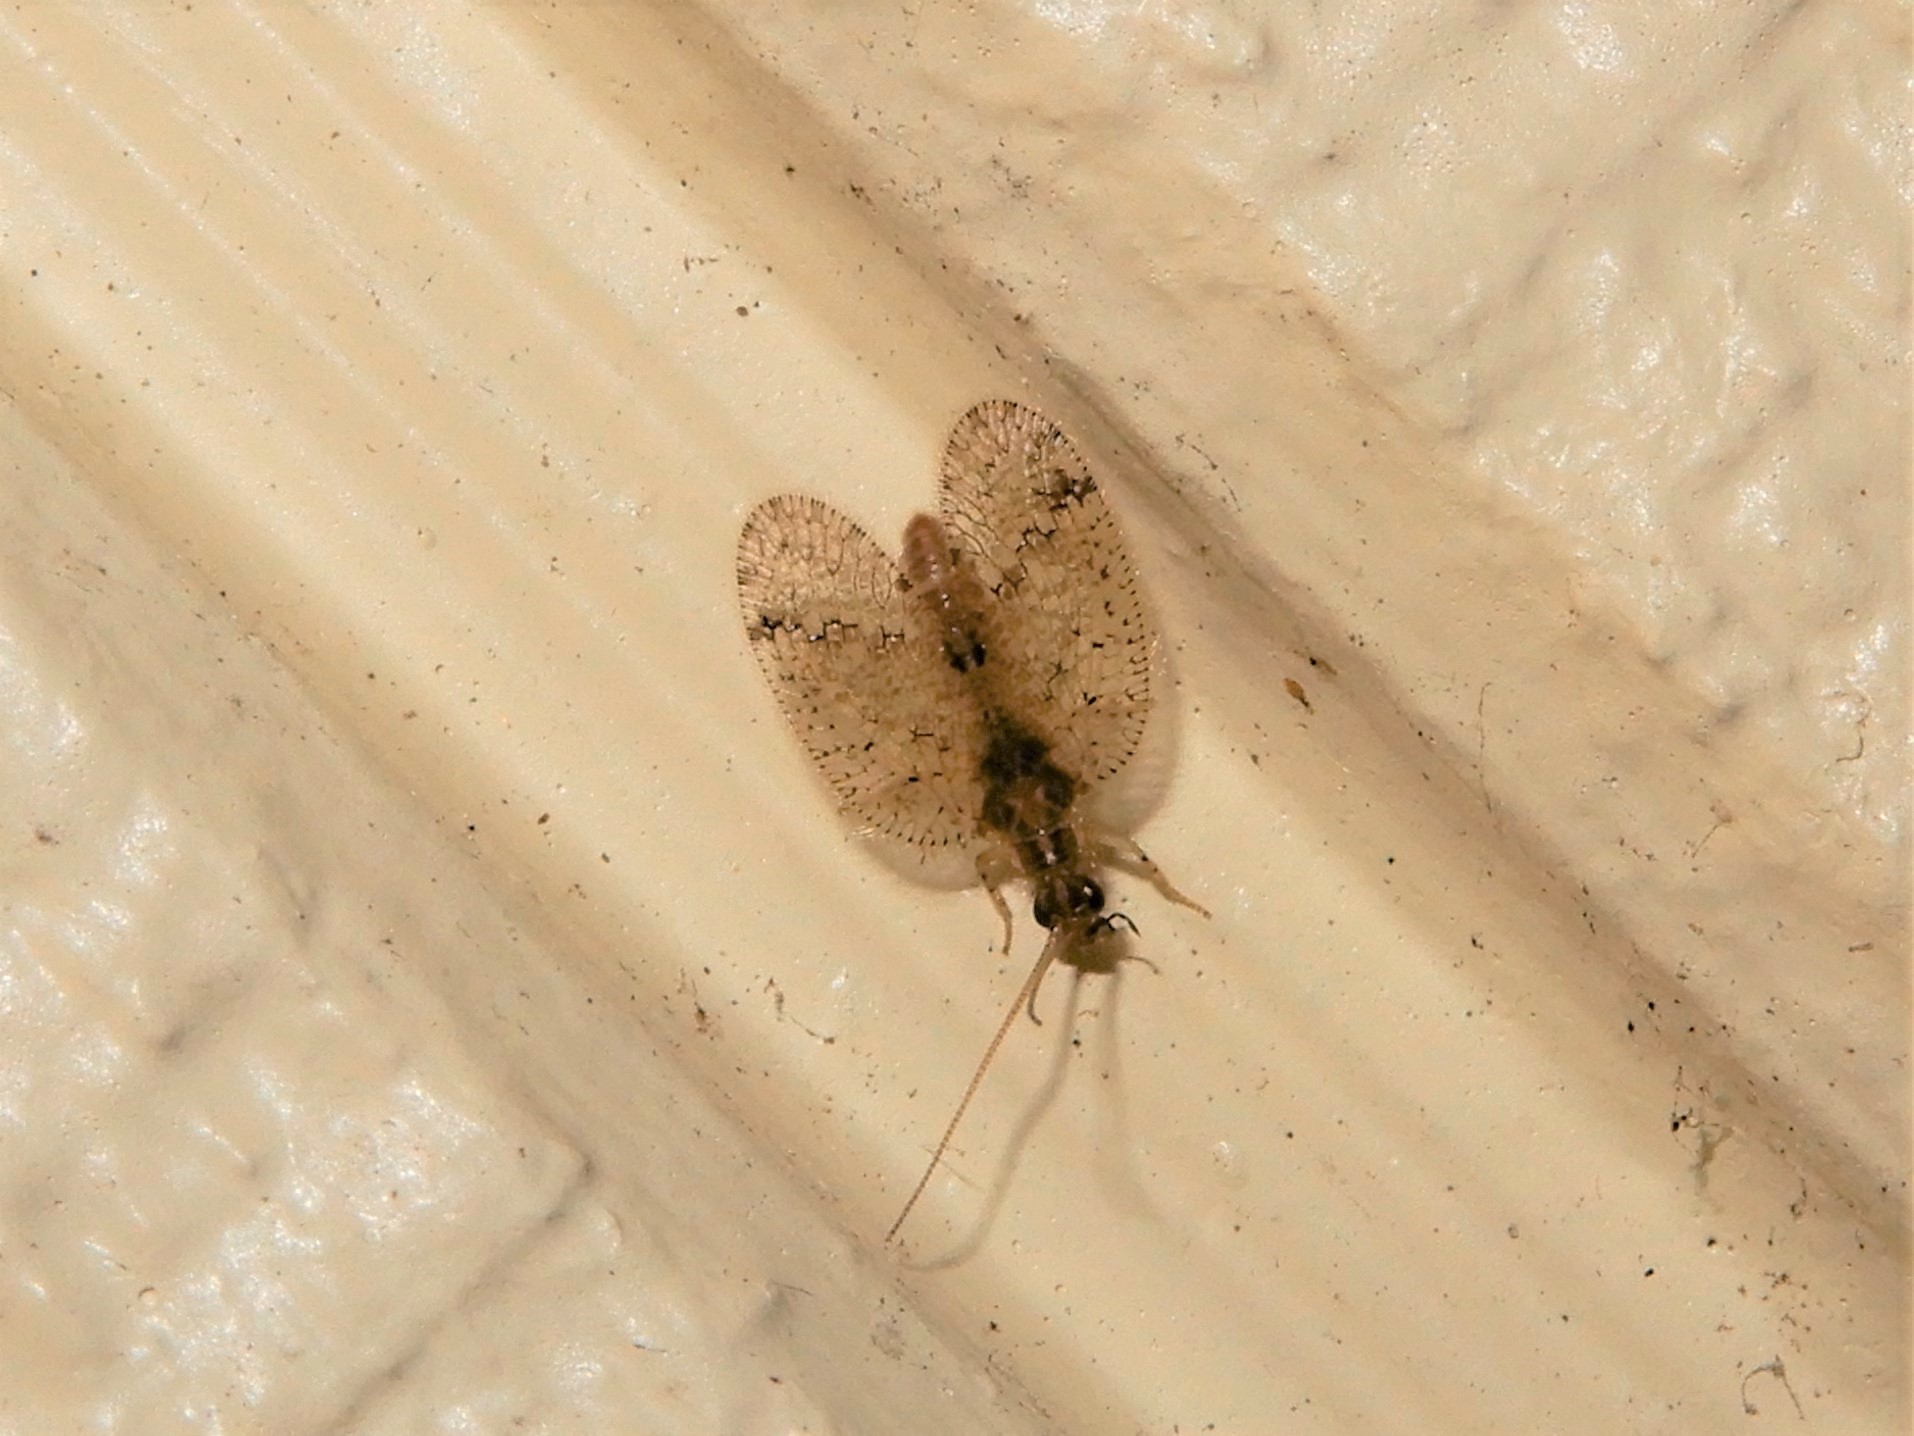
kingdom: Animalia
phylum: Arthropoda
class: Insecta
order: Neuroptera
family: Hemerobiidae
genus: Psectra
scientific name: Psectra nakaharai
